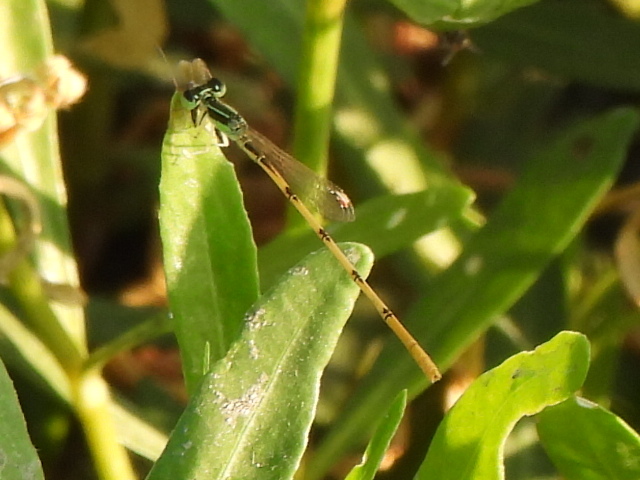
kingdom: Animalia
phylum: Arthropoda
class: Insecta
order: Odonata
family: Coenagrionidae
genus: Ischnura
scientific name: Ischnura hastata
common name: Citrine forktail
